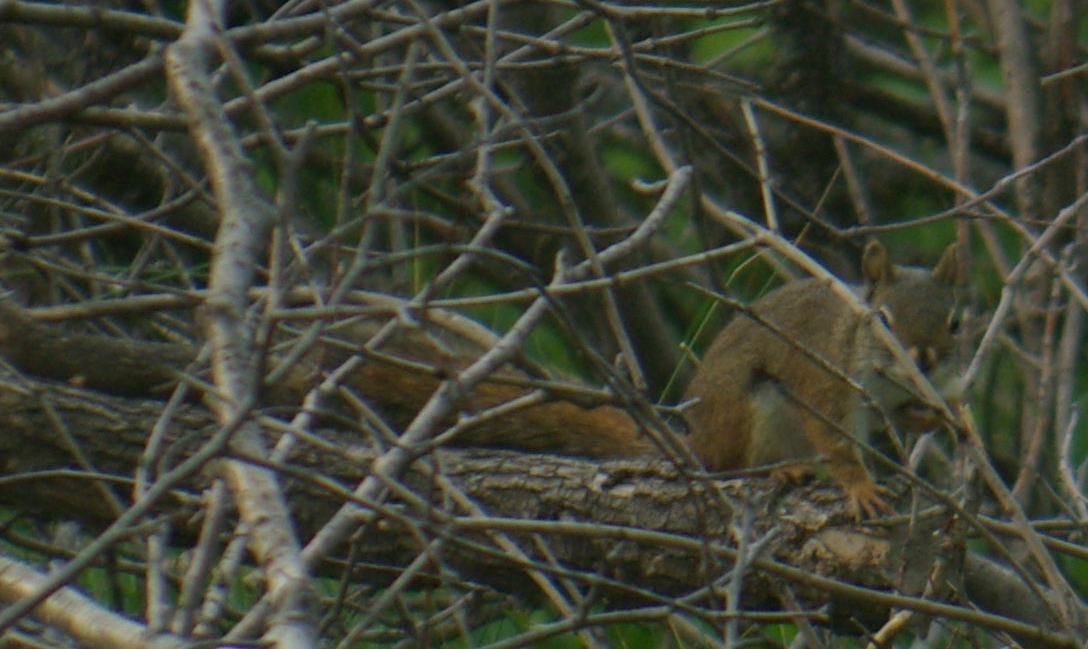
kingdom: Animalia
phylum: Chordata
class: Mammalia
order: Rodentia
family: Sciuridae
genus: Tamiasciurus
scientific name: Tamiasciurus hudsonicus
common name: Red squirrel
